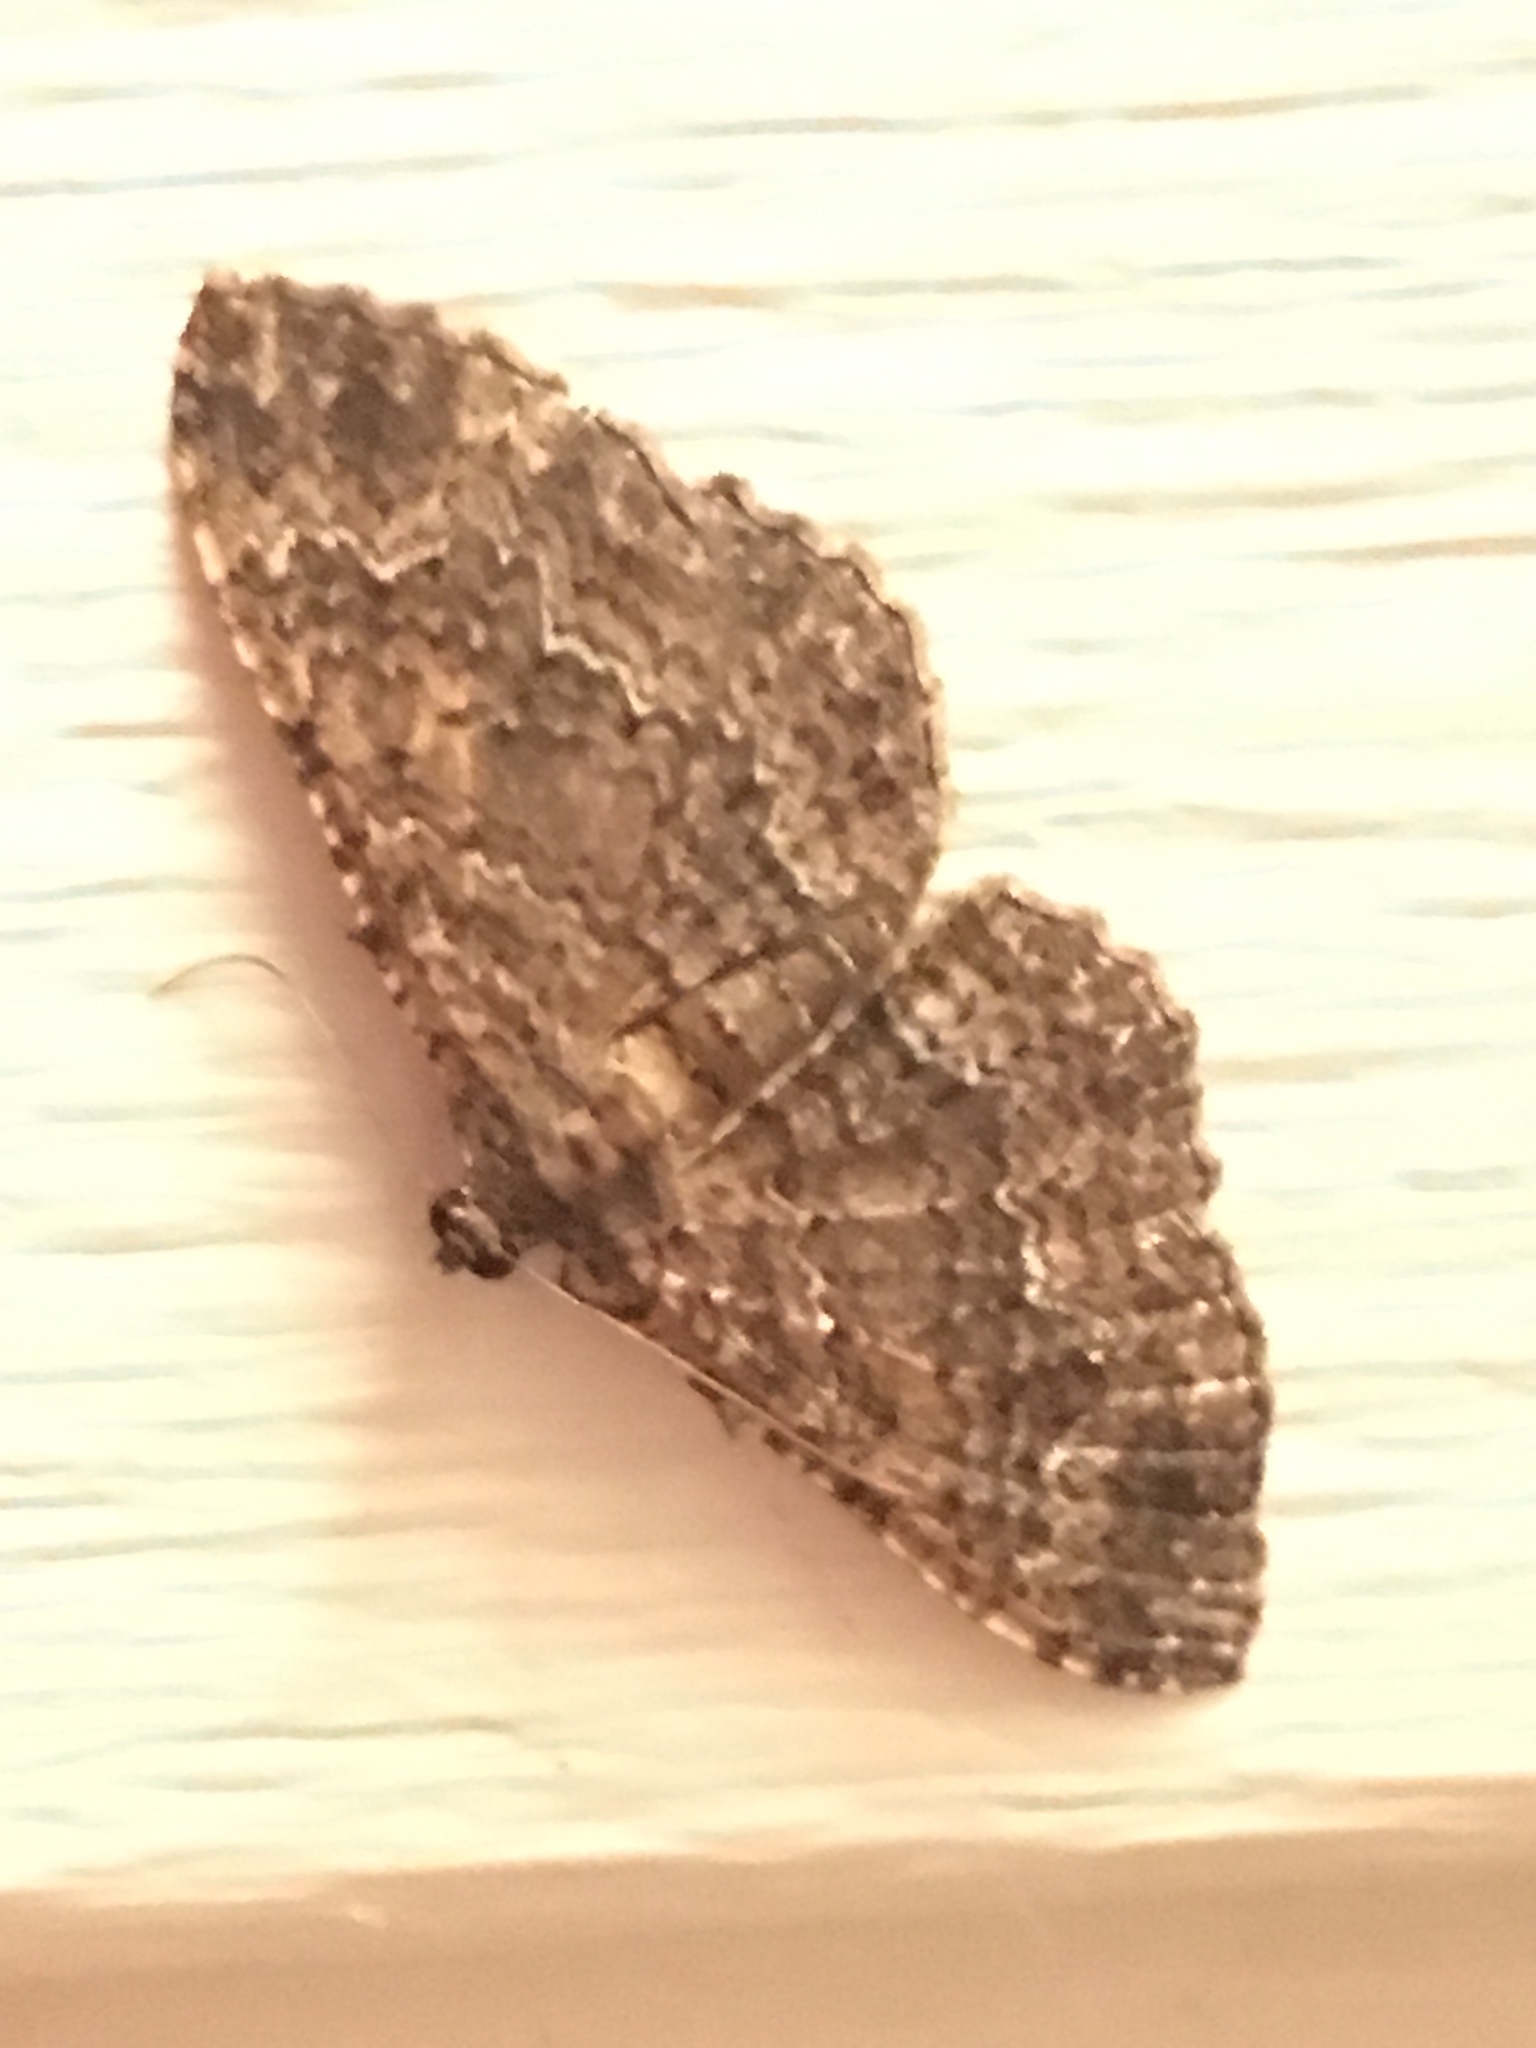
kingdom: Animalia
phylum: Arthropoda
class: Insecta
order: Lepidoptera
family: Geometridae
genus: Disclisioprocta
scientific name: Disclisioprocta stellata
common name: Somber carpet
